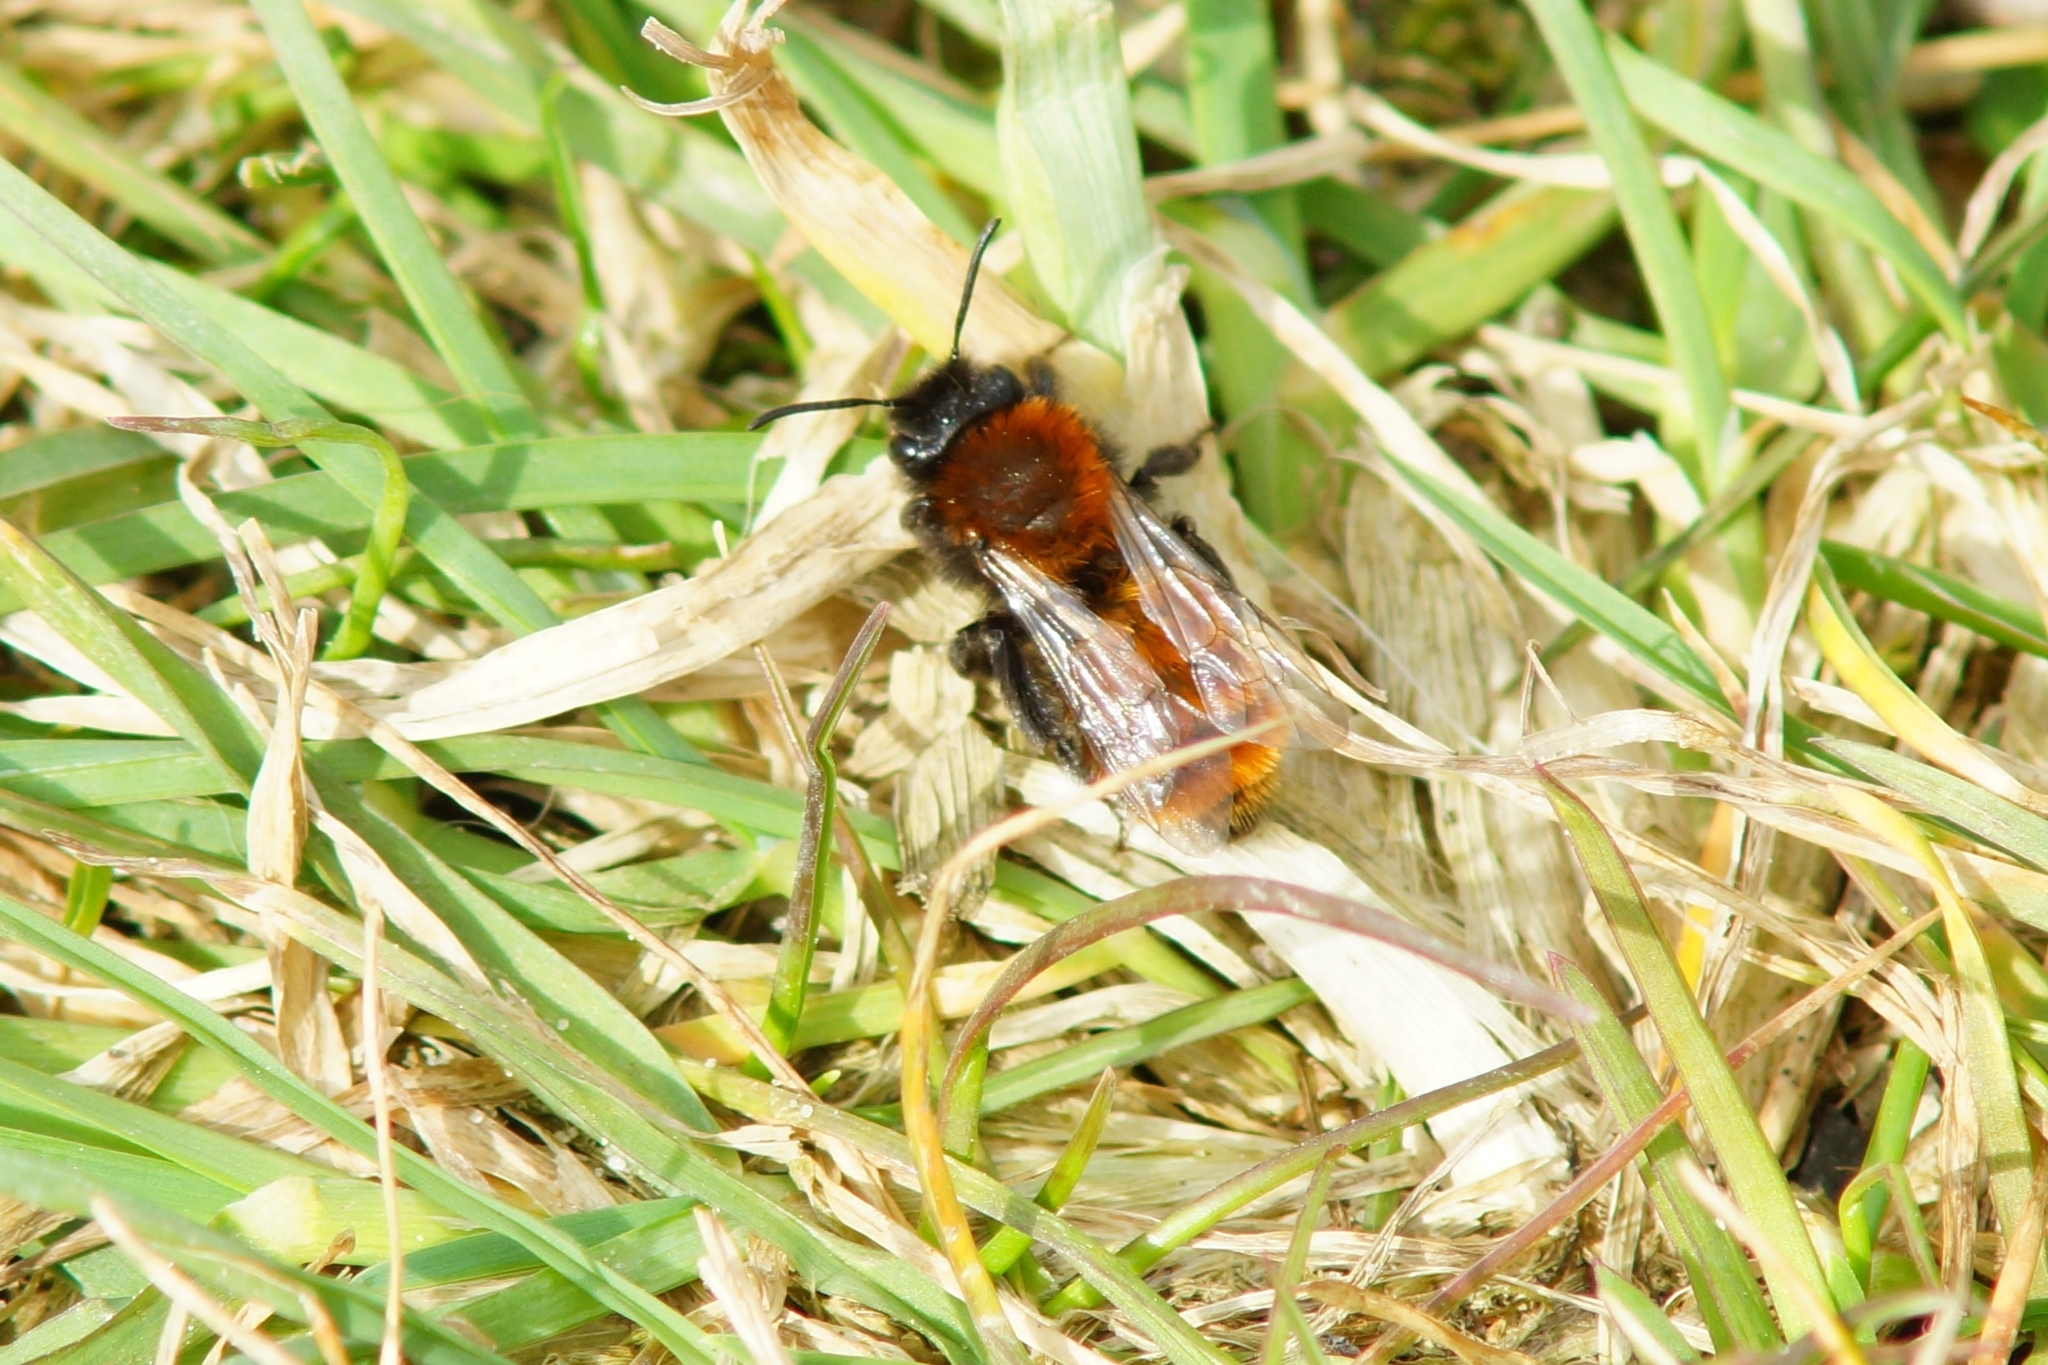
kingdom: Animalia
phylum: Arthropoda
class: Insecta
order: Hymenoptera
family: Andrenidae
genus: Andrena
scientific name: Andrena fulva
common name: Tawny mining bee
